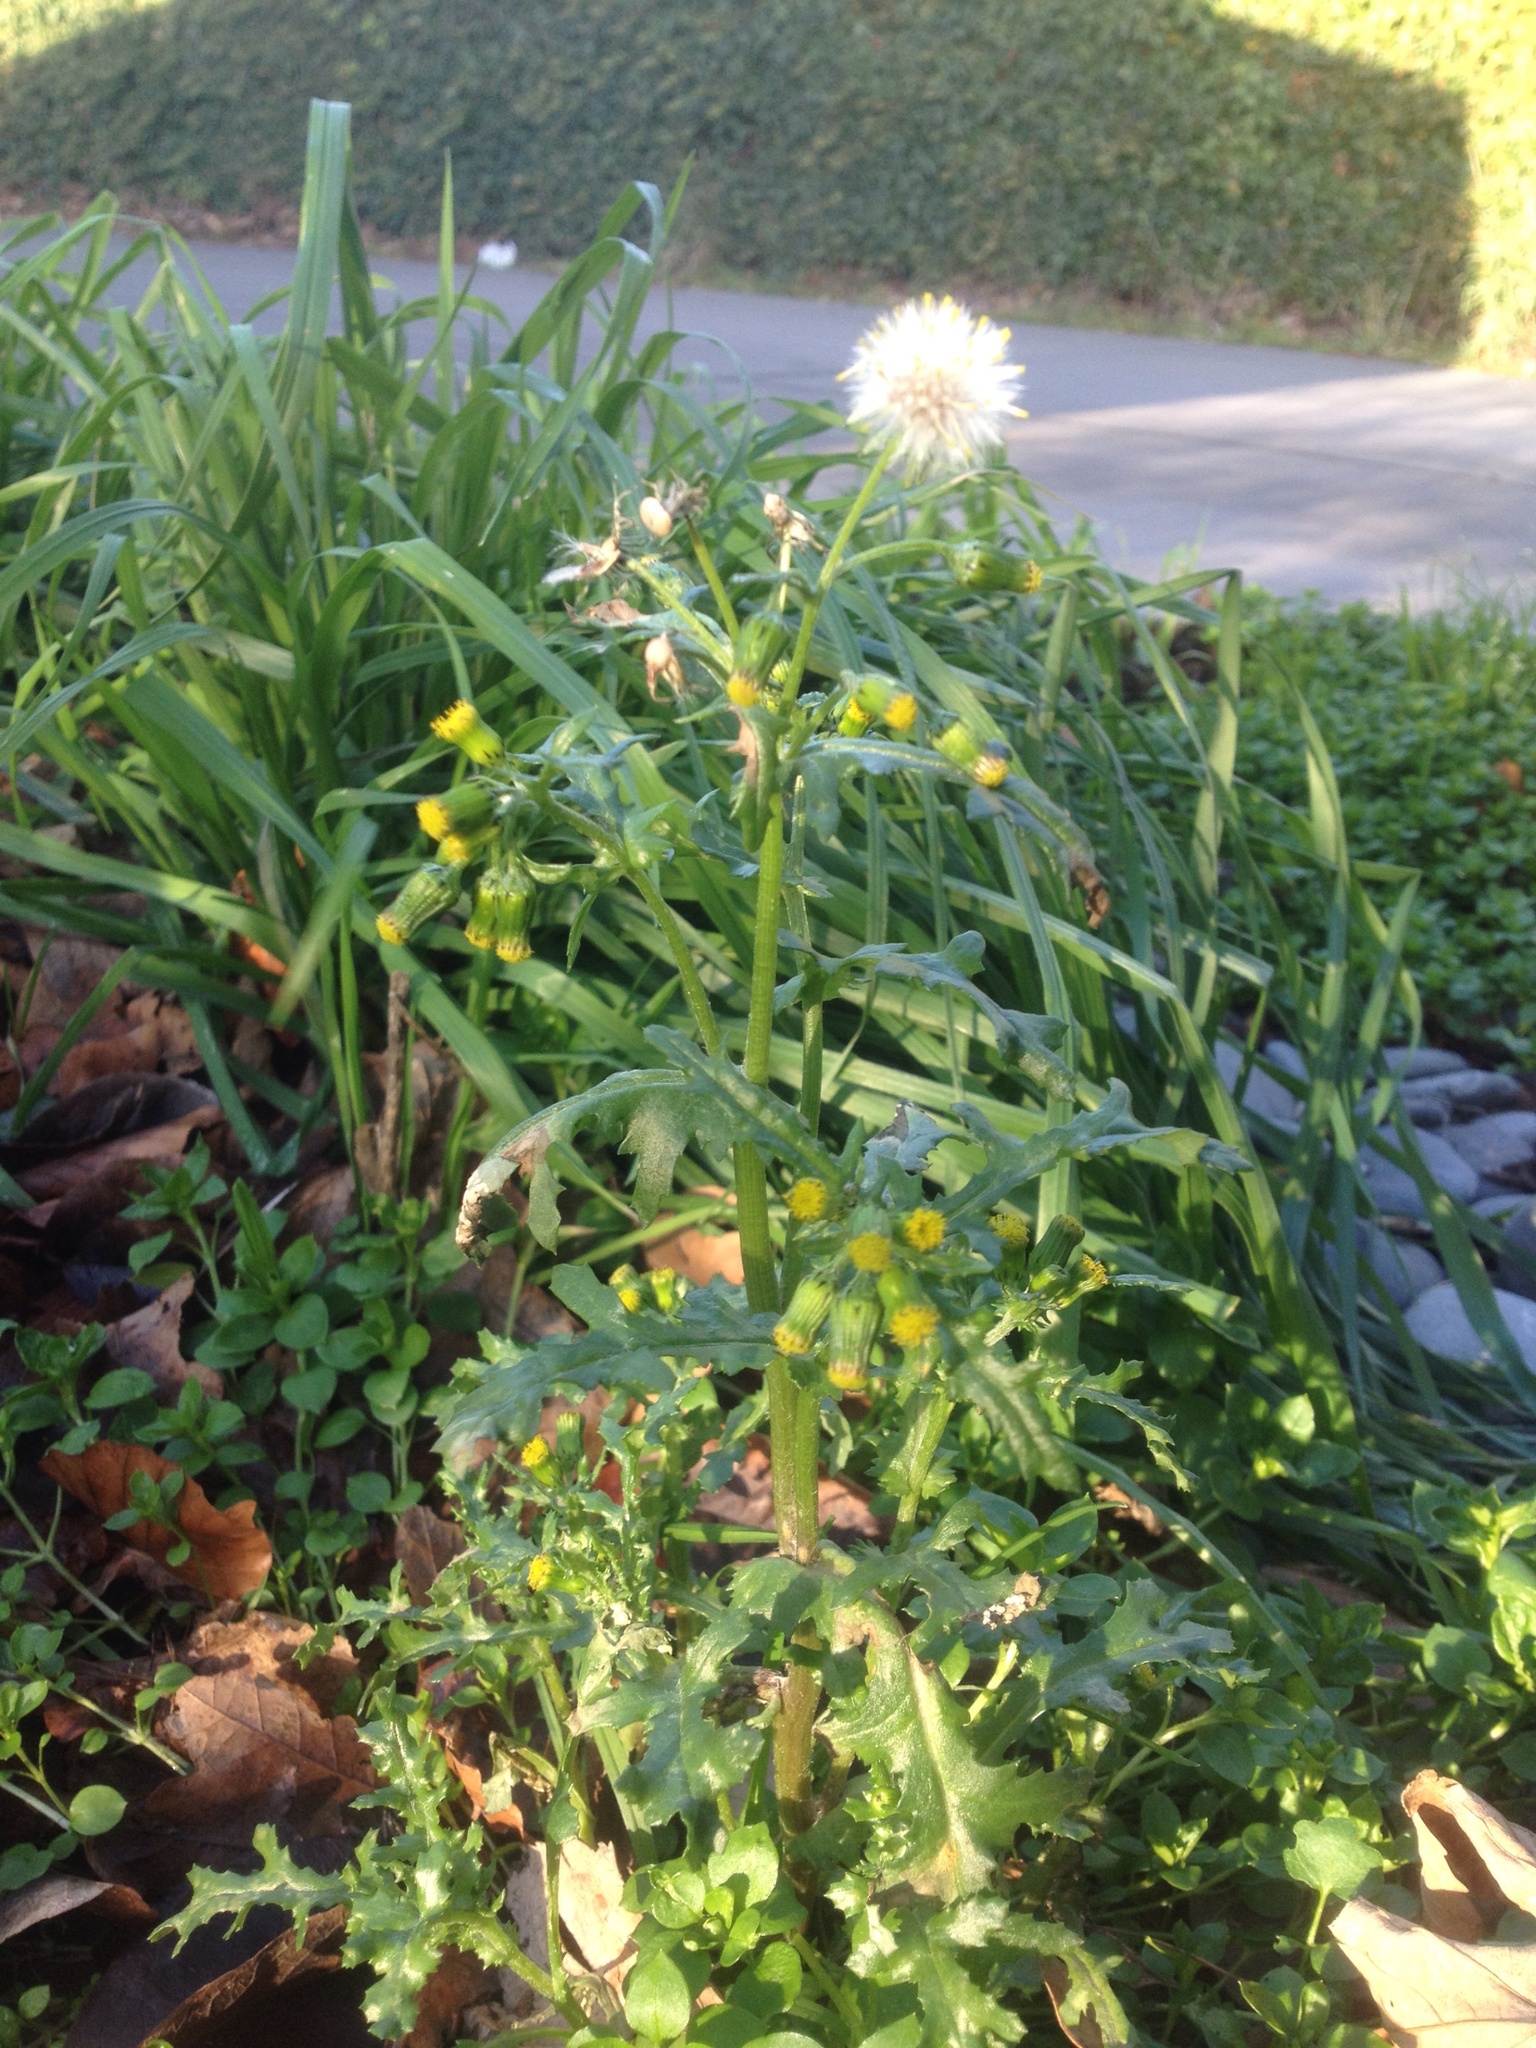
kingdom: Plantae
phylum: Tracheophyta
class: Magnoliopsida
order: Asterales
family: Asteraceae
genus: Senecio
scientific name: Senecio vulgaris
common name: Old-man-in-the-spring
